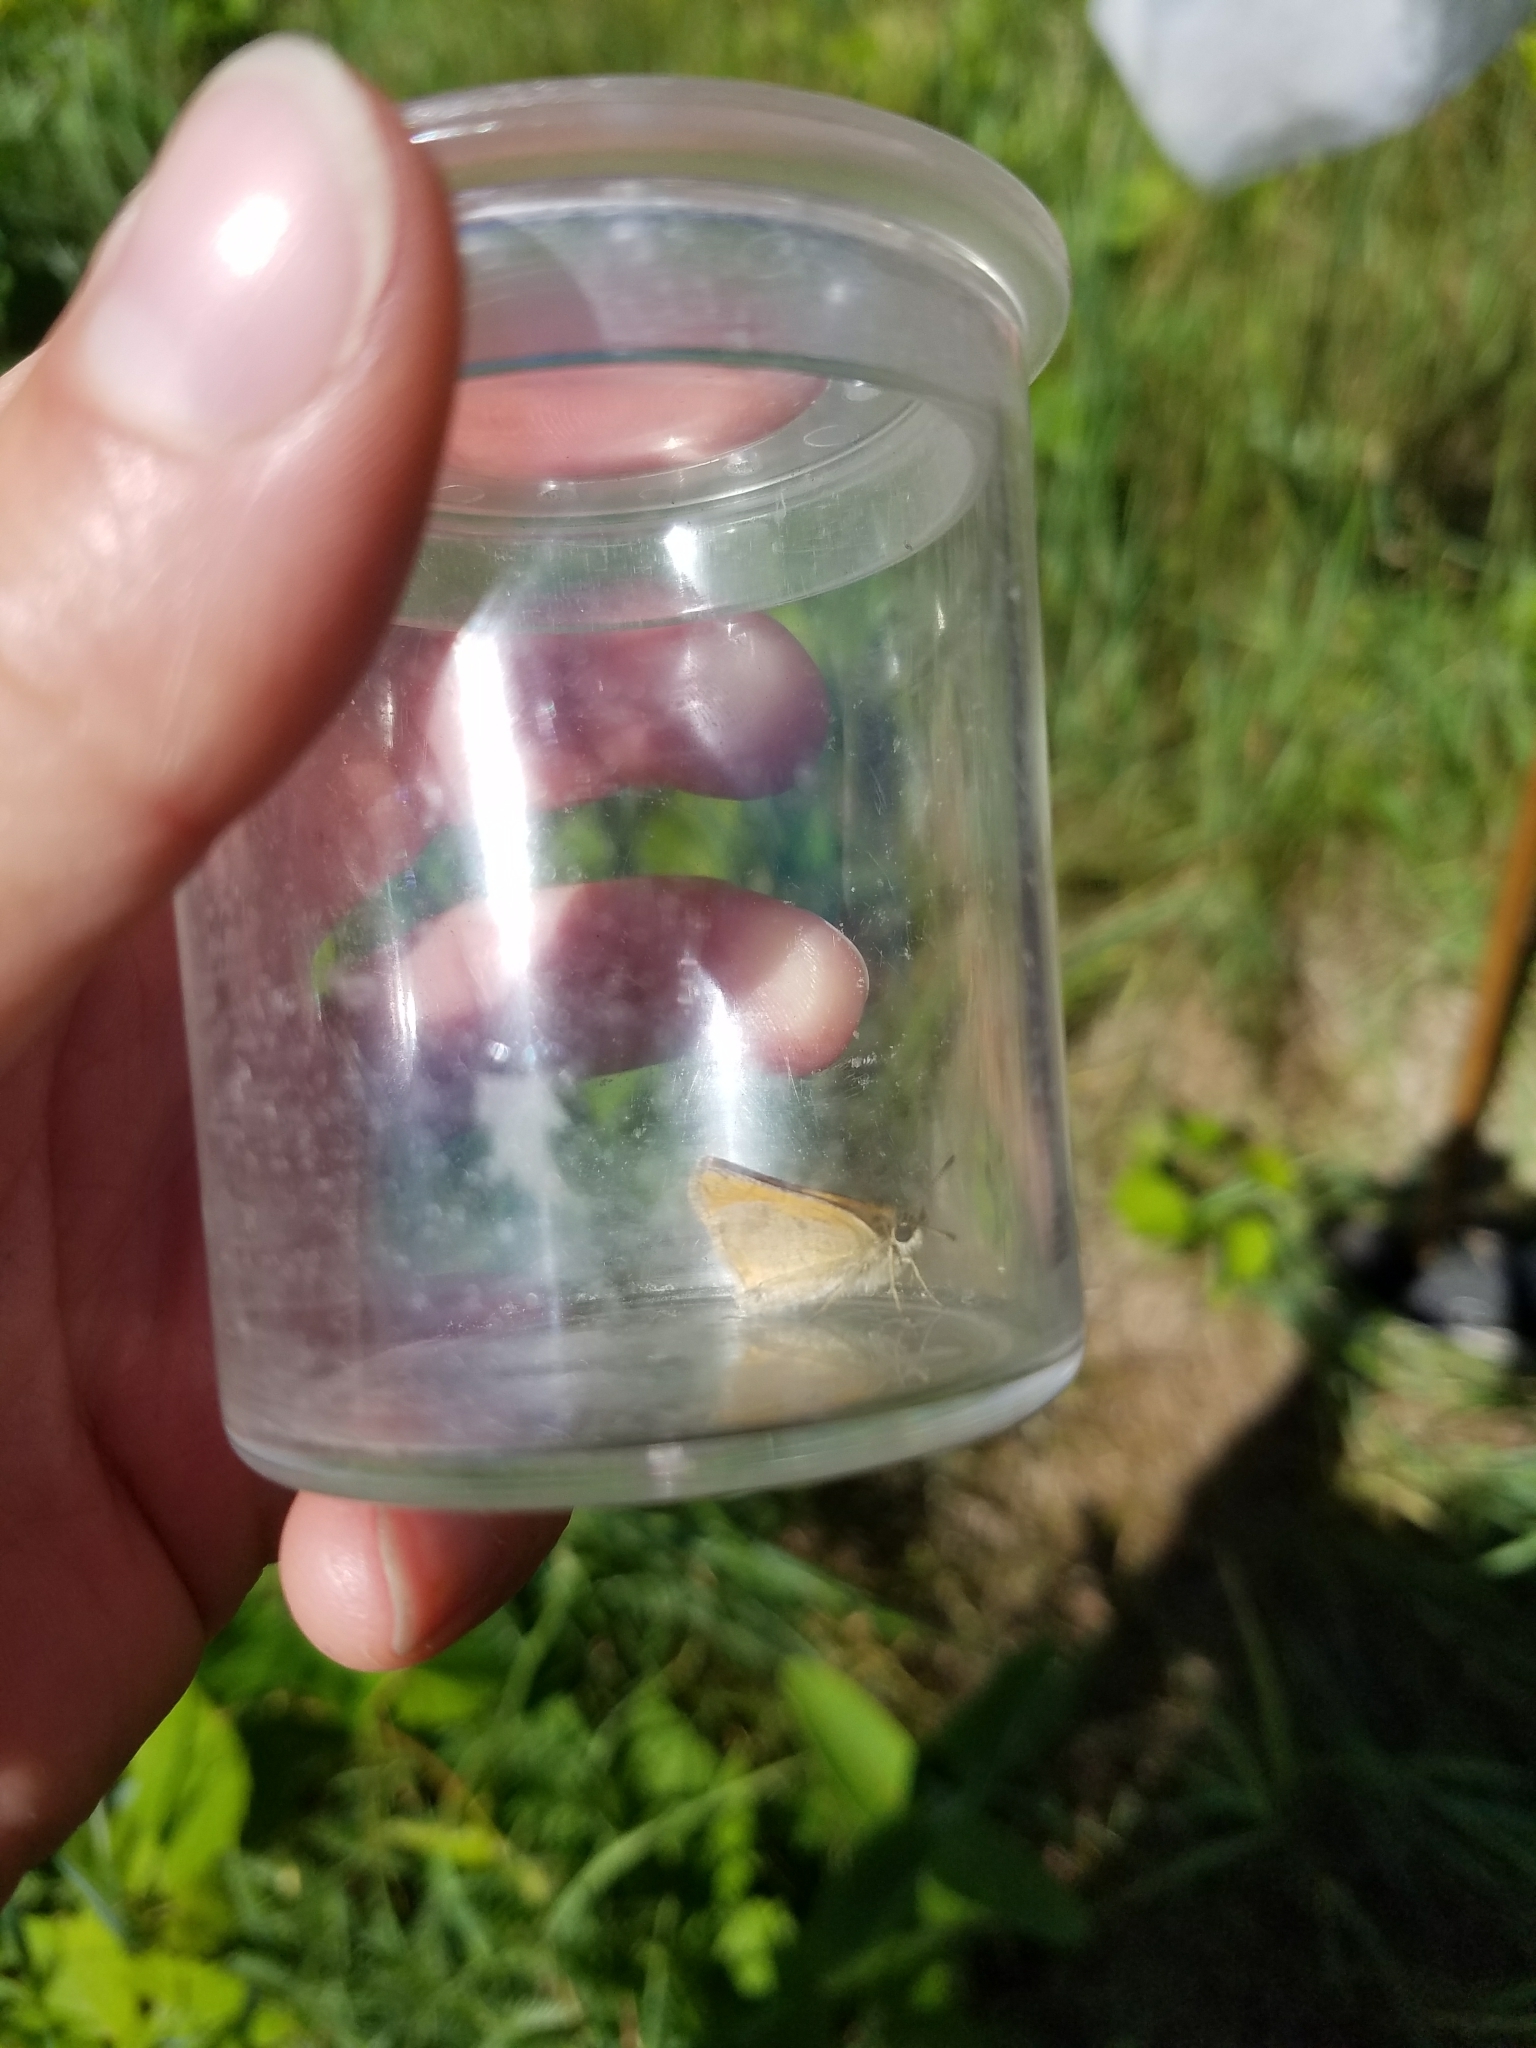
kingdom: Animalia
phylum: Arthropoda
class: Insecta
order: Lepidoptera
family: Hesperiidae
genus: Thymelicus
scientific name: Thymelicus lineola
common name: Essex skipper
